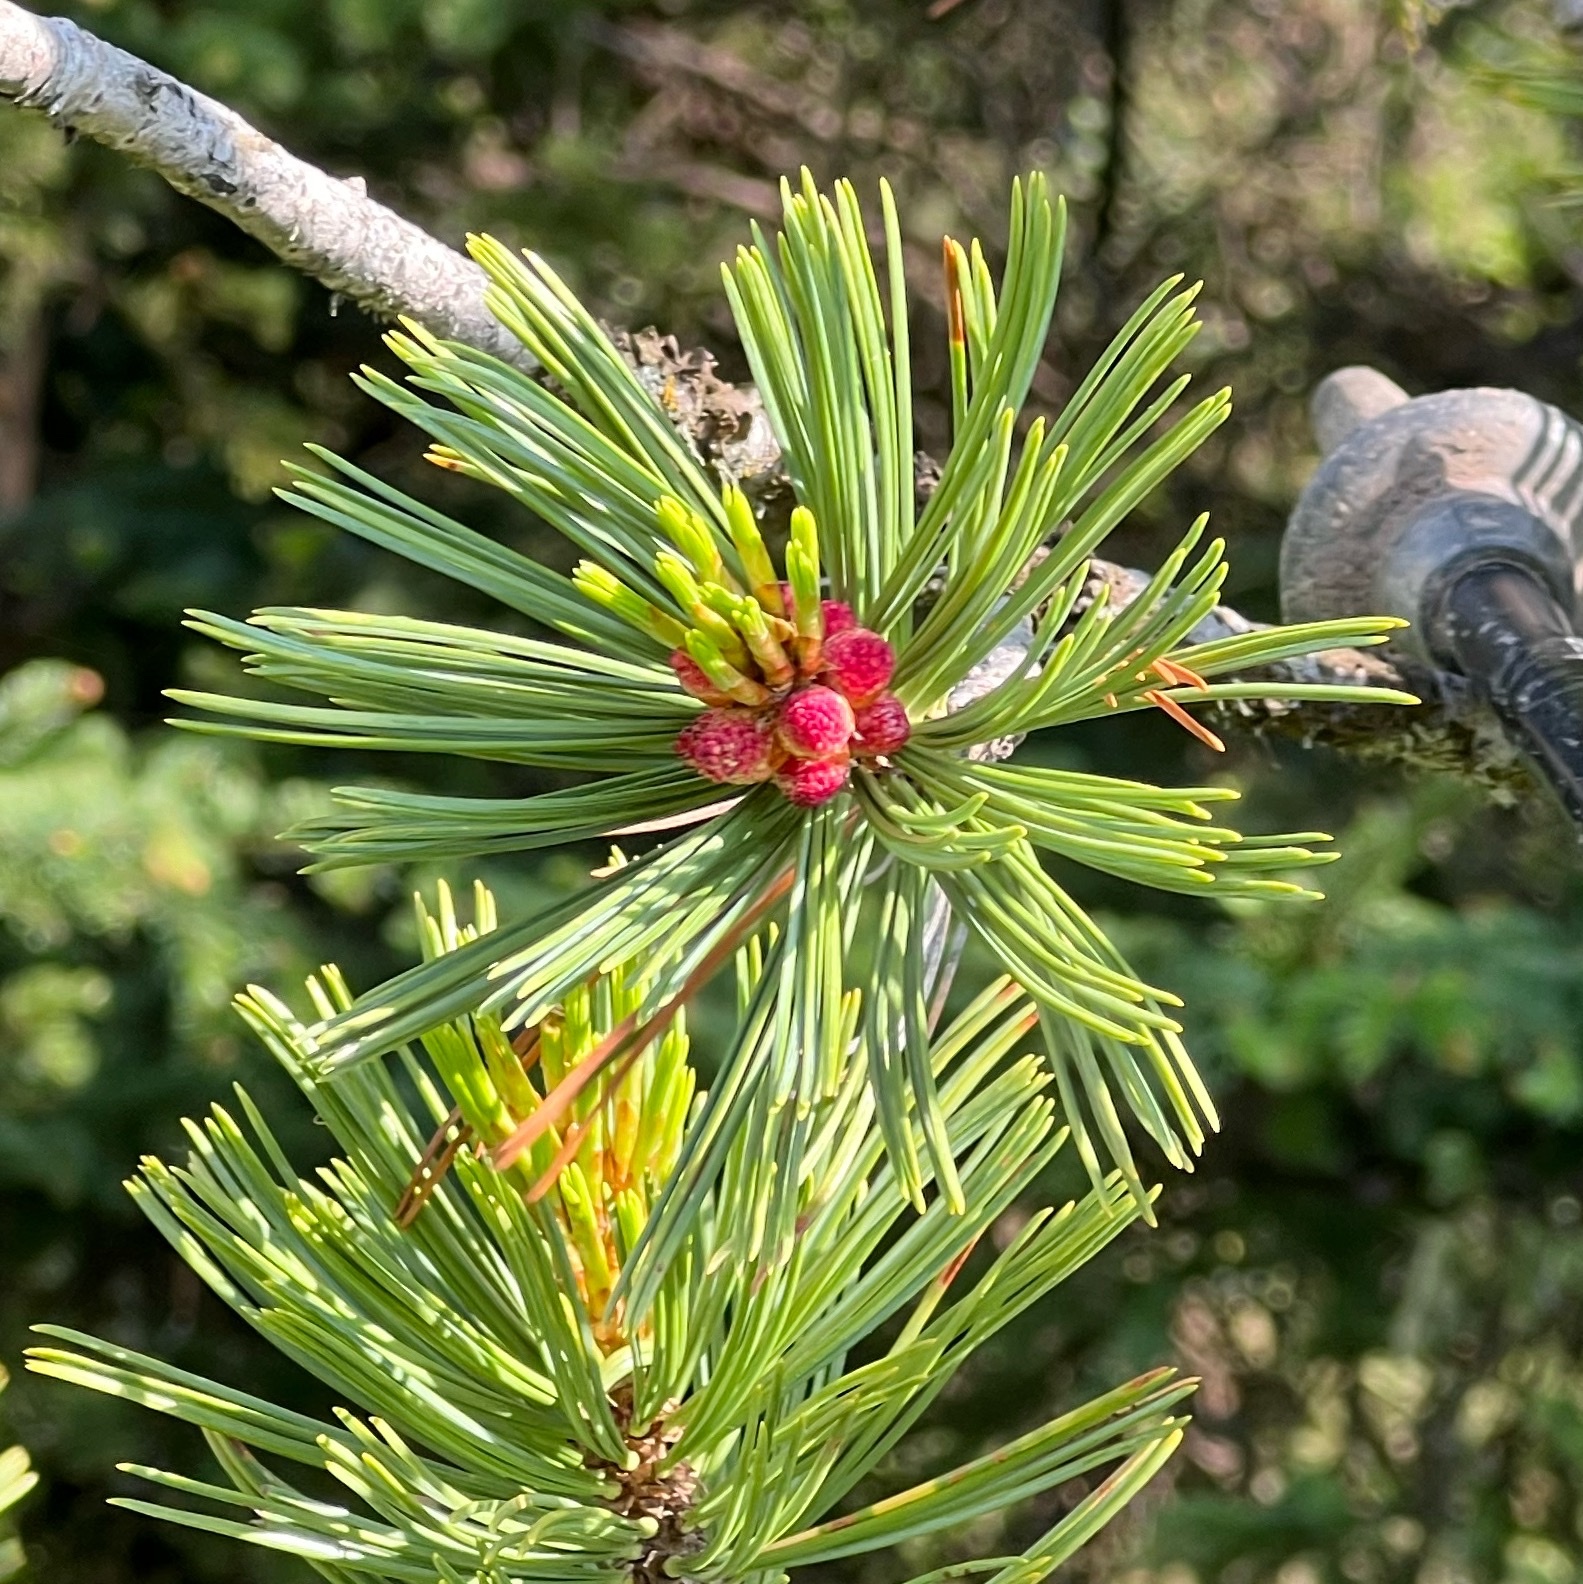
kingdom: Plantae
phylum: Tracheophyta
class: Pinopsida
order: Pinales
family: Pinaceae
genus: Pinus
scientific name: Pinus albicaulis
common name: Whitebark pine
